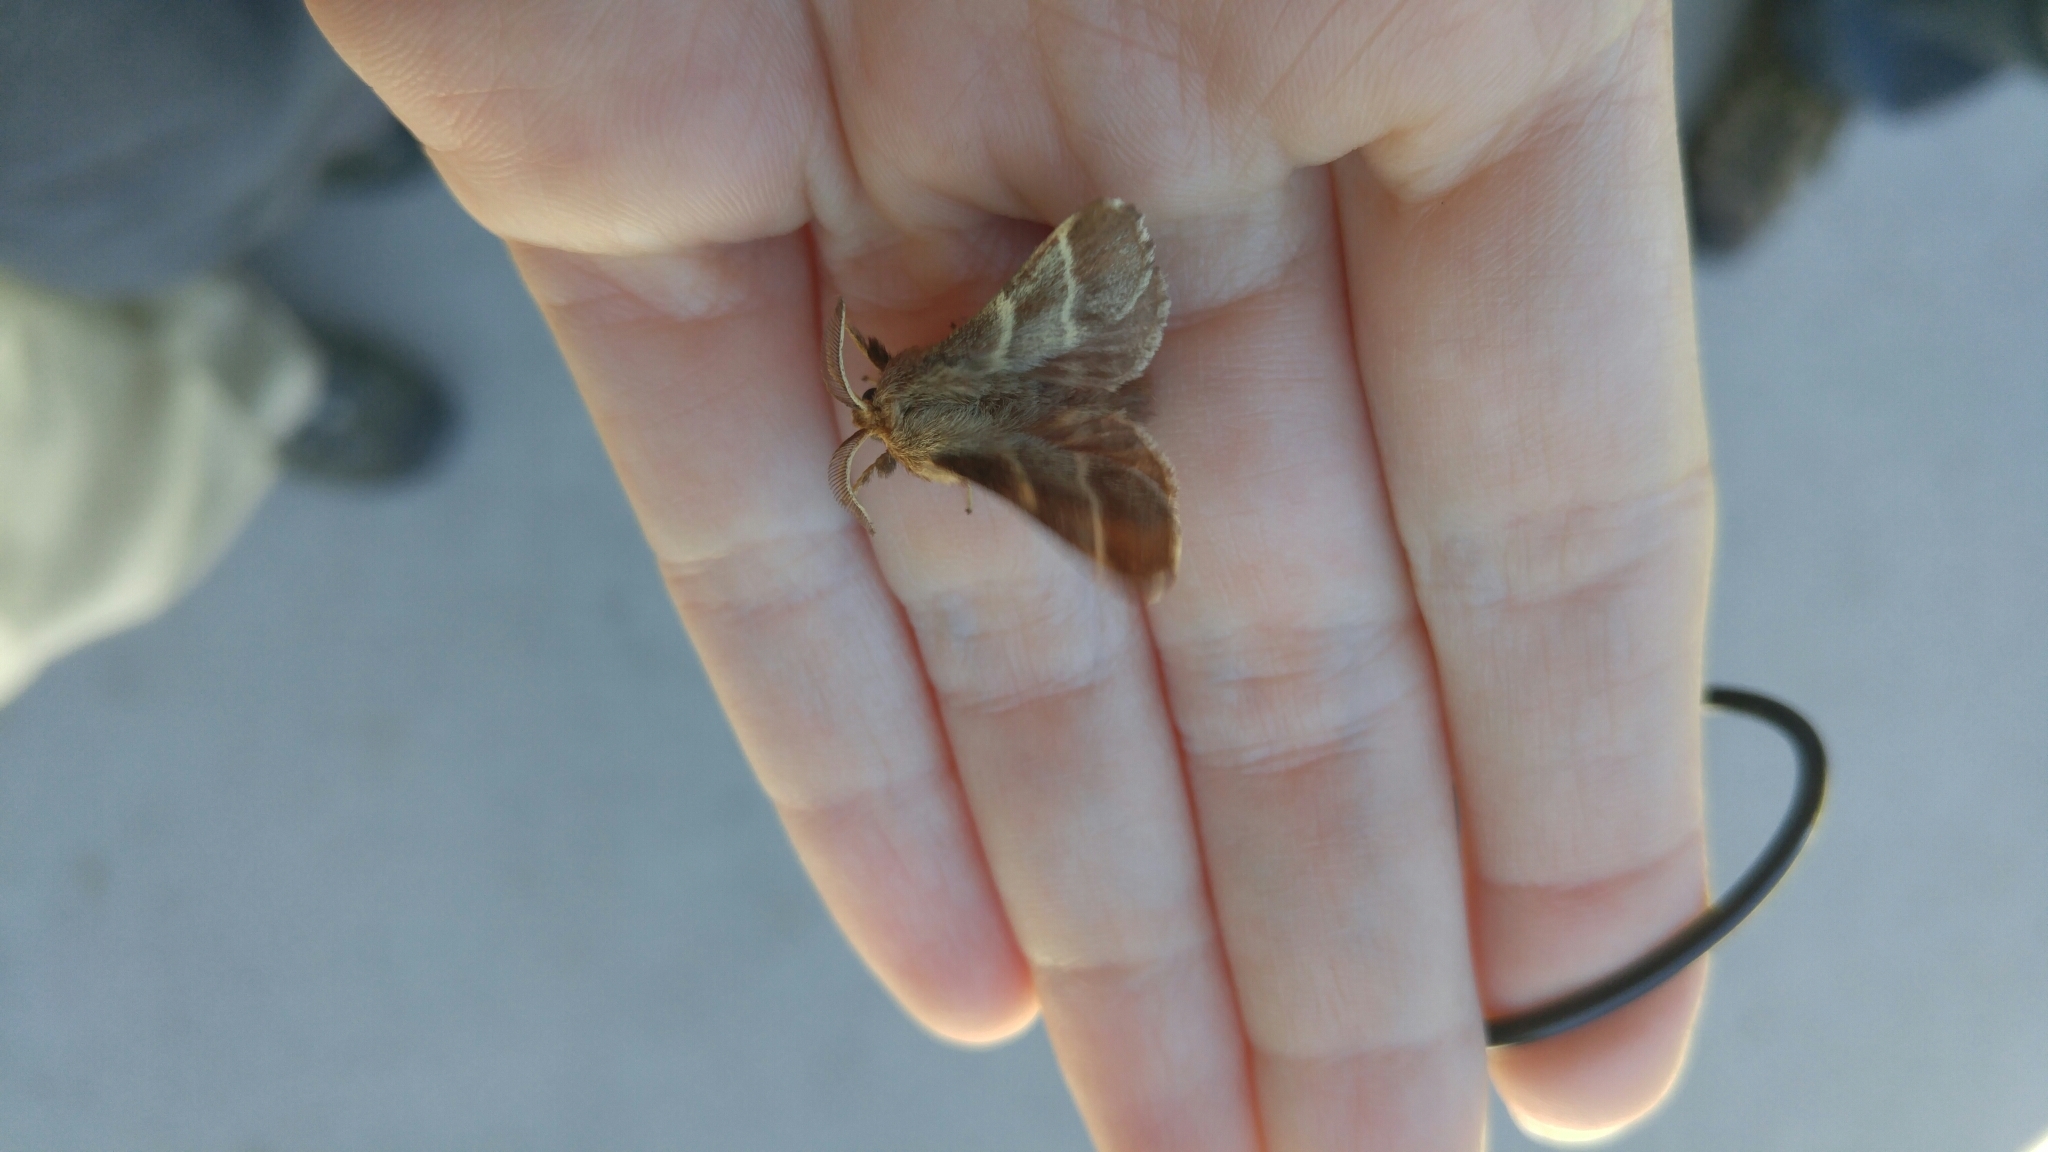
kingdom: Animalia
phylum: Arthropoda
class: Insecta
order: Lepidoptera
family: Lasiocampidae
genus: Malacosoma
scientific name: Malacosoma americana
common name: Eastern tent caterpillar moth
